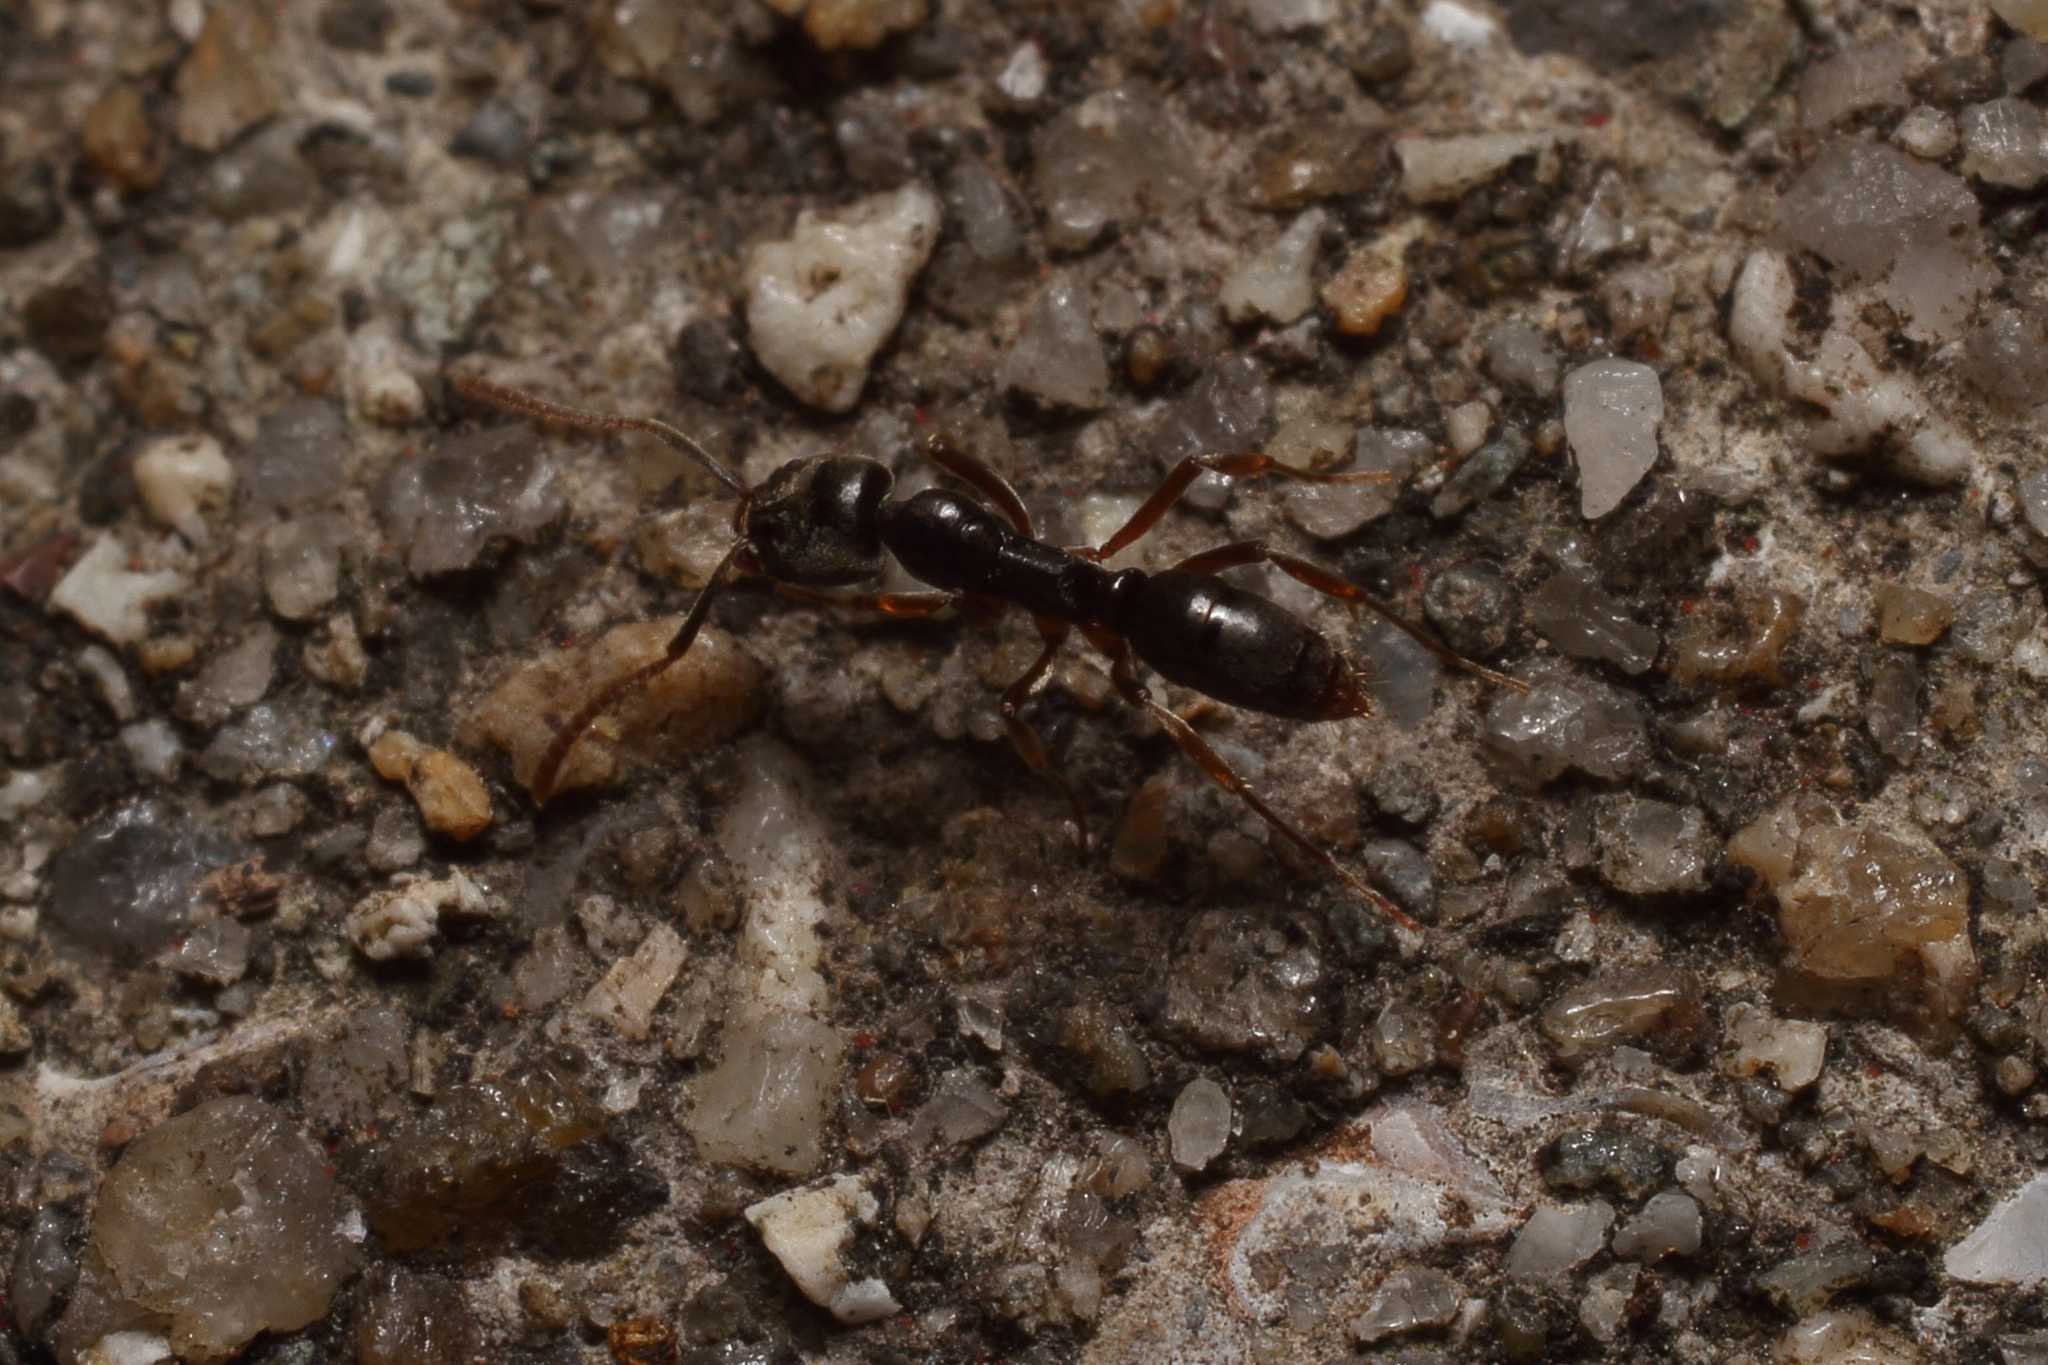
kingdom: Animalia
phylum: Arthropoda
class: Insecta
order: Hymenoptera
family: Formicidae
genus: Pachycondyla
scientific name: Pachycondyla chinensis
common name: Asian needle ant
